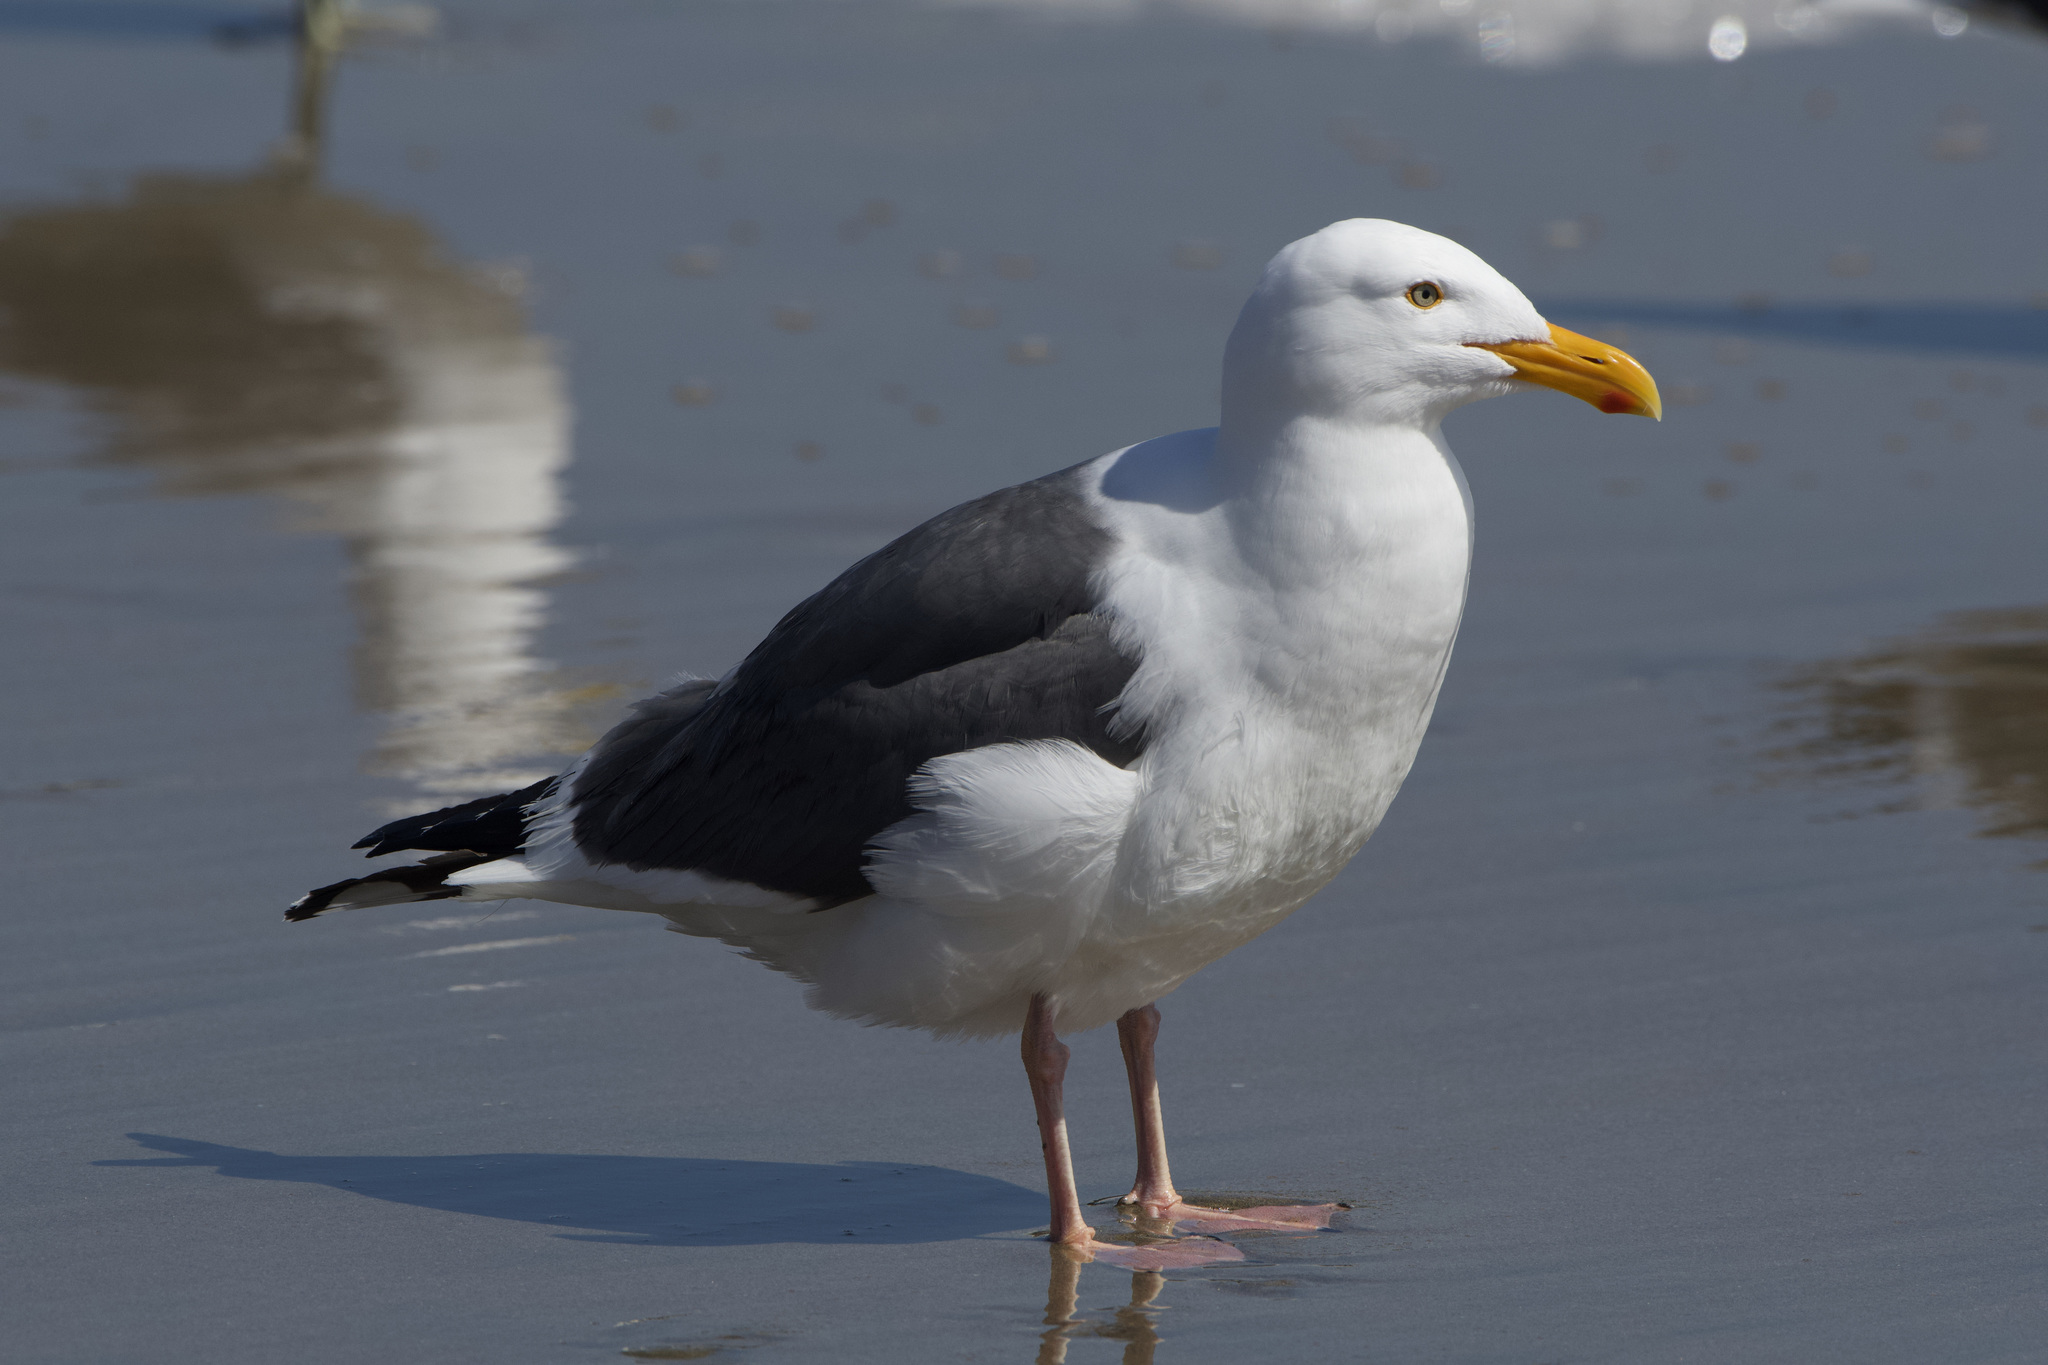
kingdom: Animalia
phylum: Chordata
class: Aves
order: Charadriiformes
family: Laridae
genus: Larus
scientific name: Larus occidentalis
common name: Western gull
